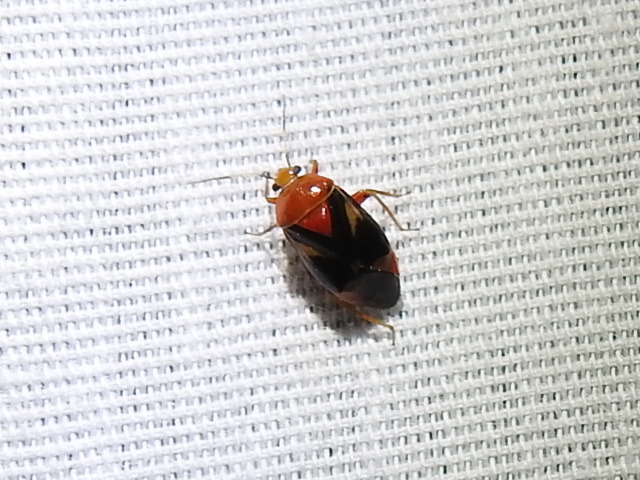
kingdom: Animalia
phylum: Arthropoda
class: Insecta
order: Hemiptera
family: Miridae
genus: Neocapsus
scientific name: Neocapsus cuneatus
